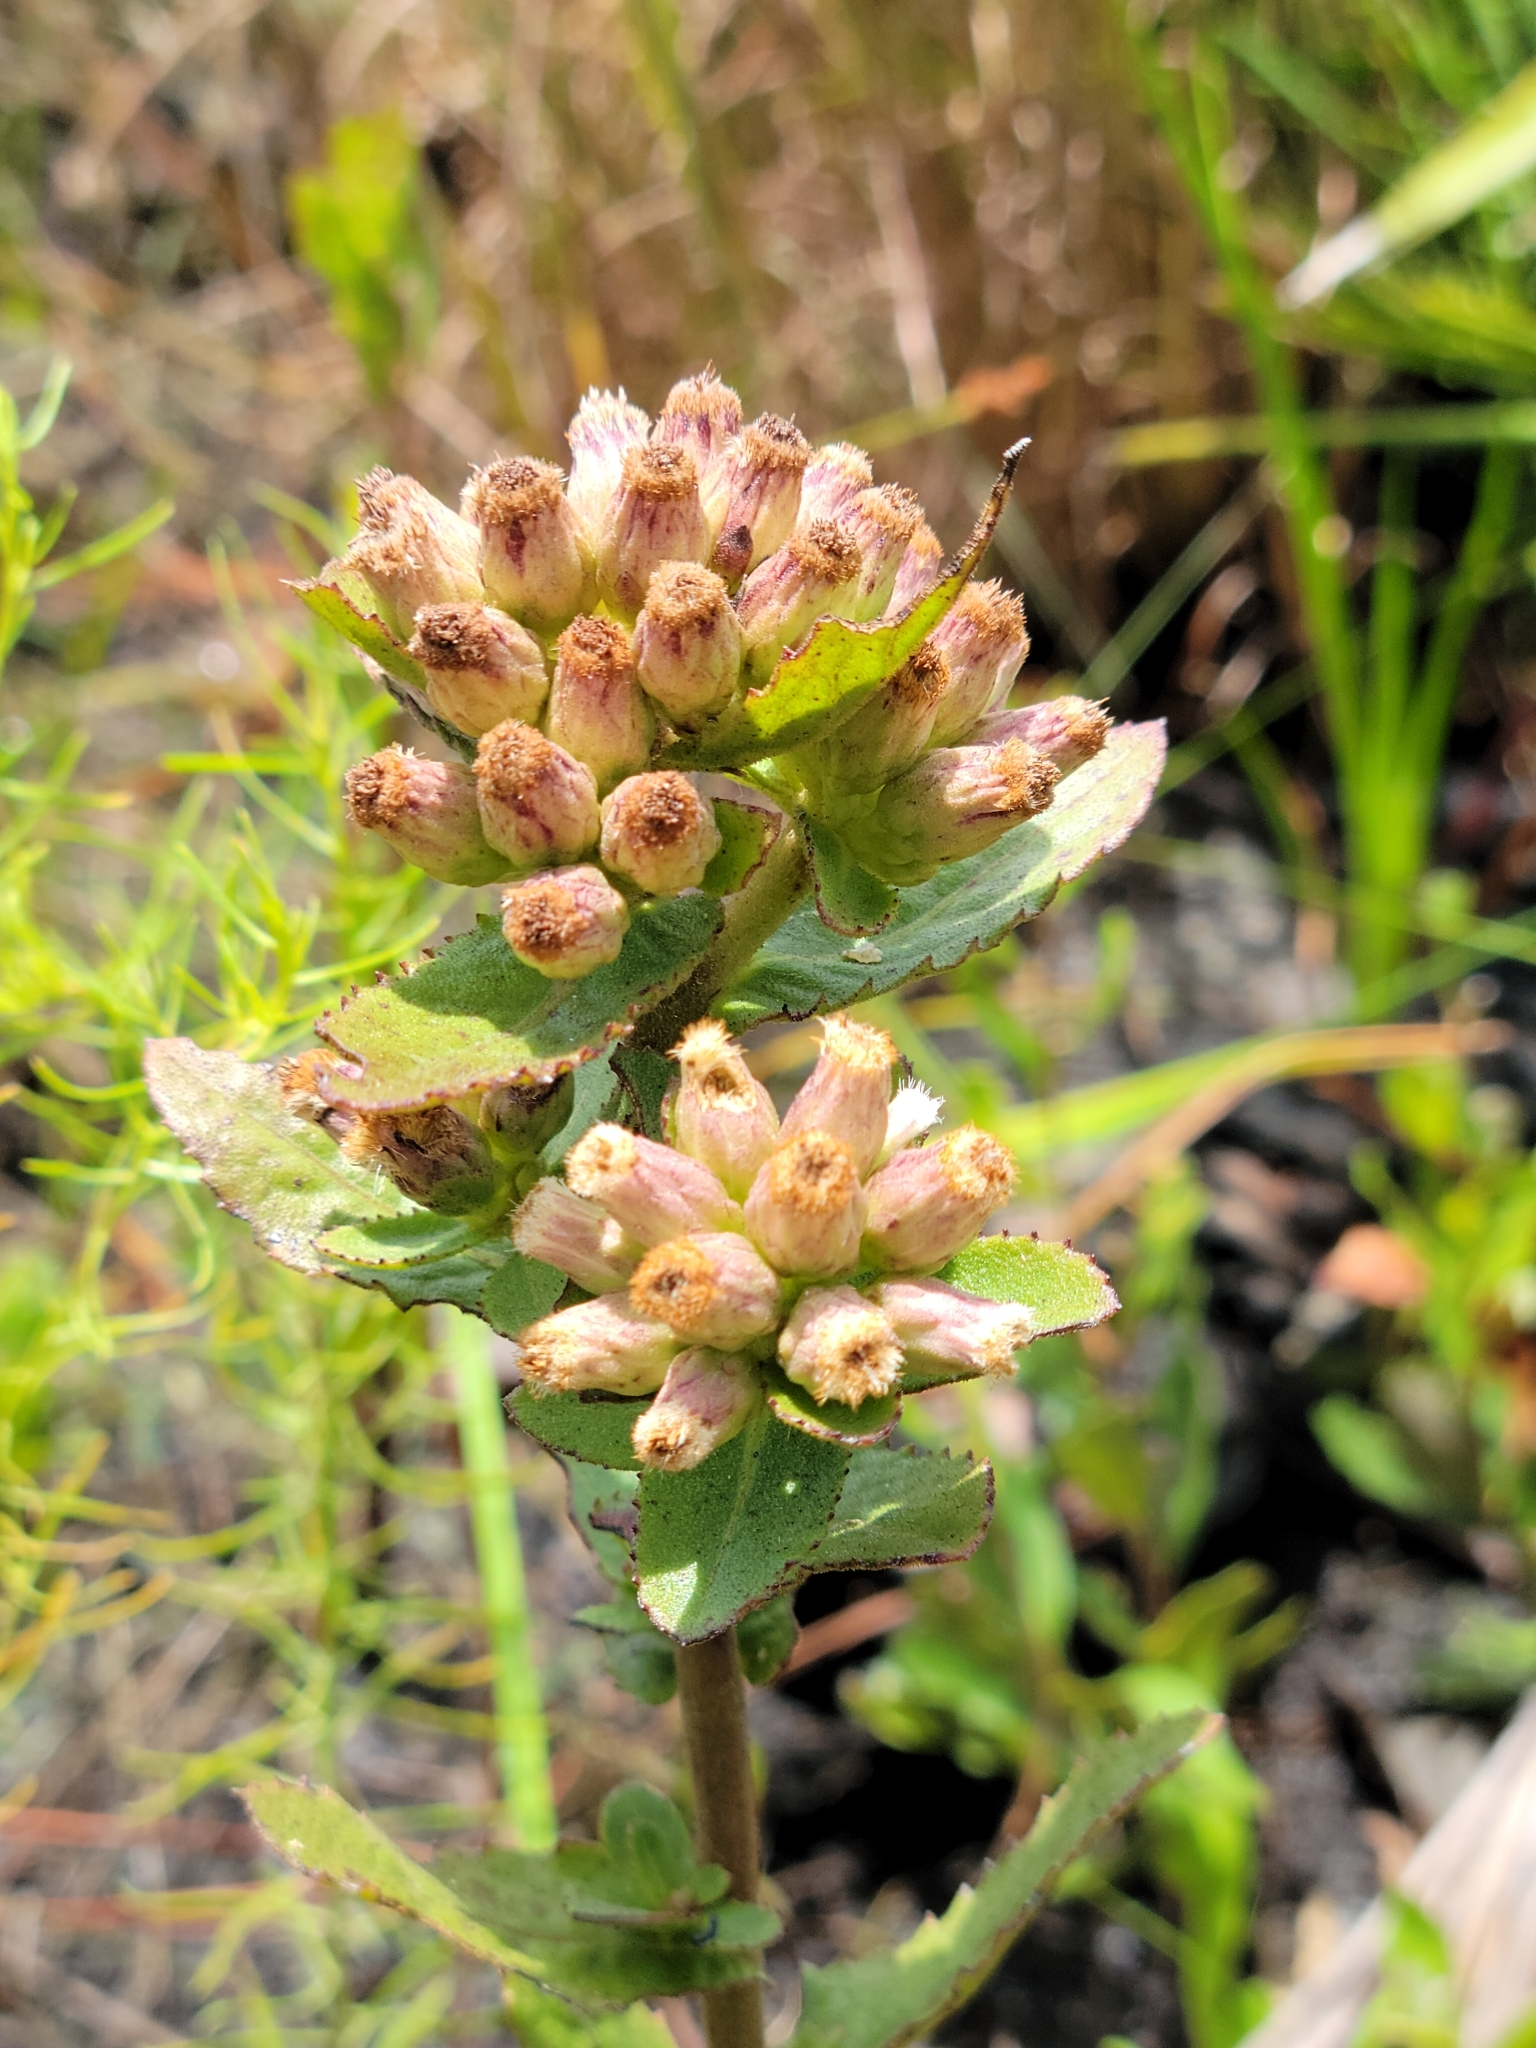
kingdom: Plantae
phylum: Tracheophyta
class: Magnoliopsida
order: Asterales
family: Asteraceae
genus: Pluchea
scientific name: Pluchea foetida
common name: Stinking camphorweed
